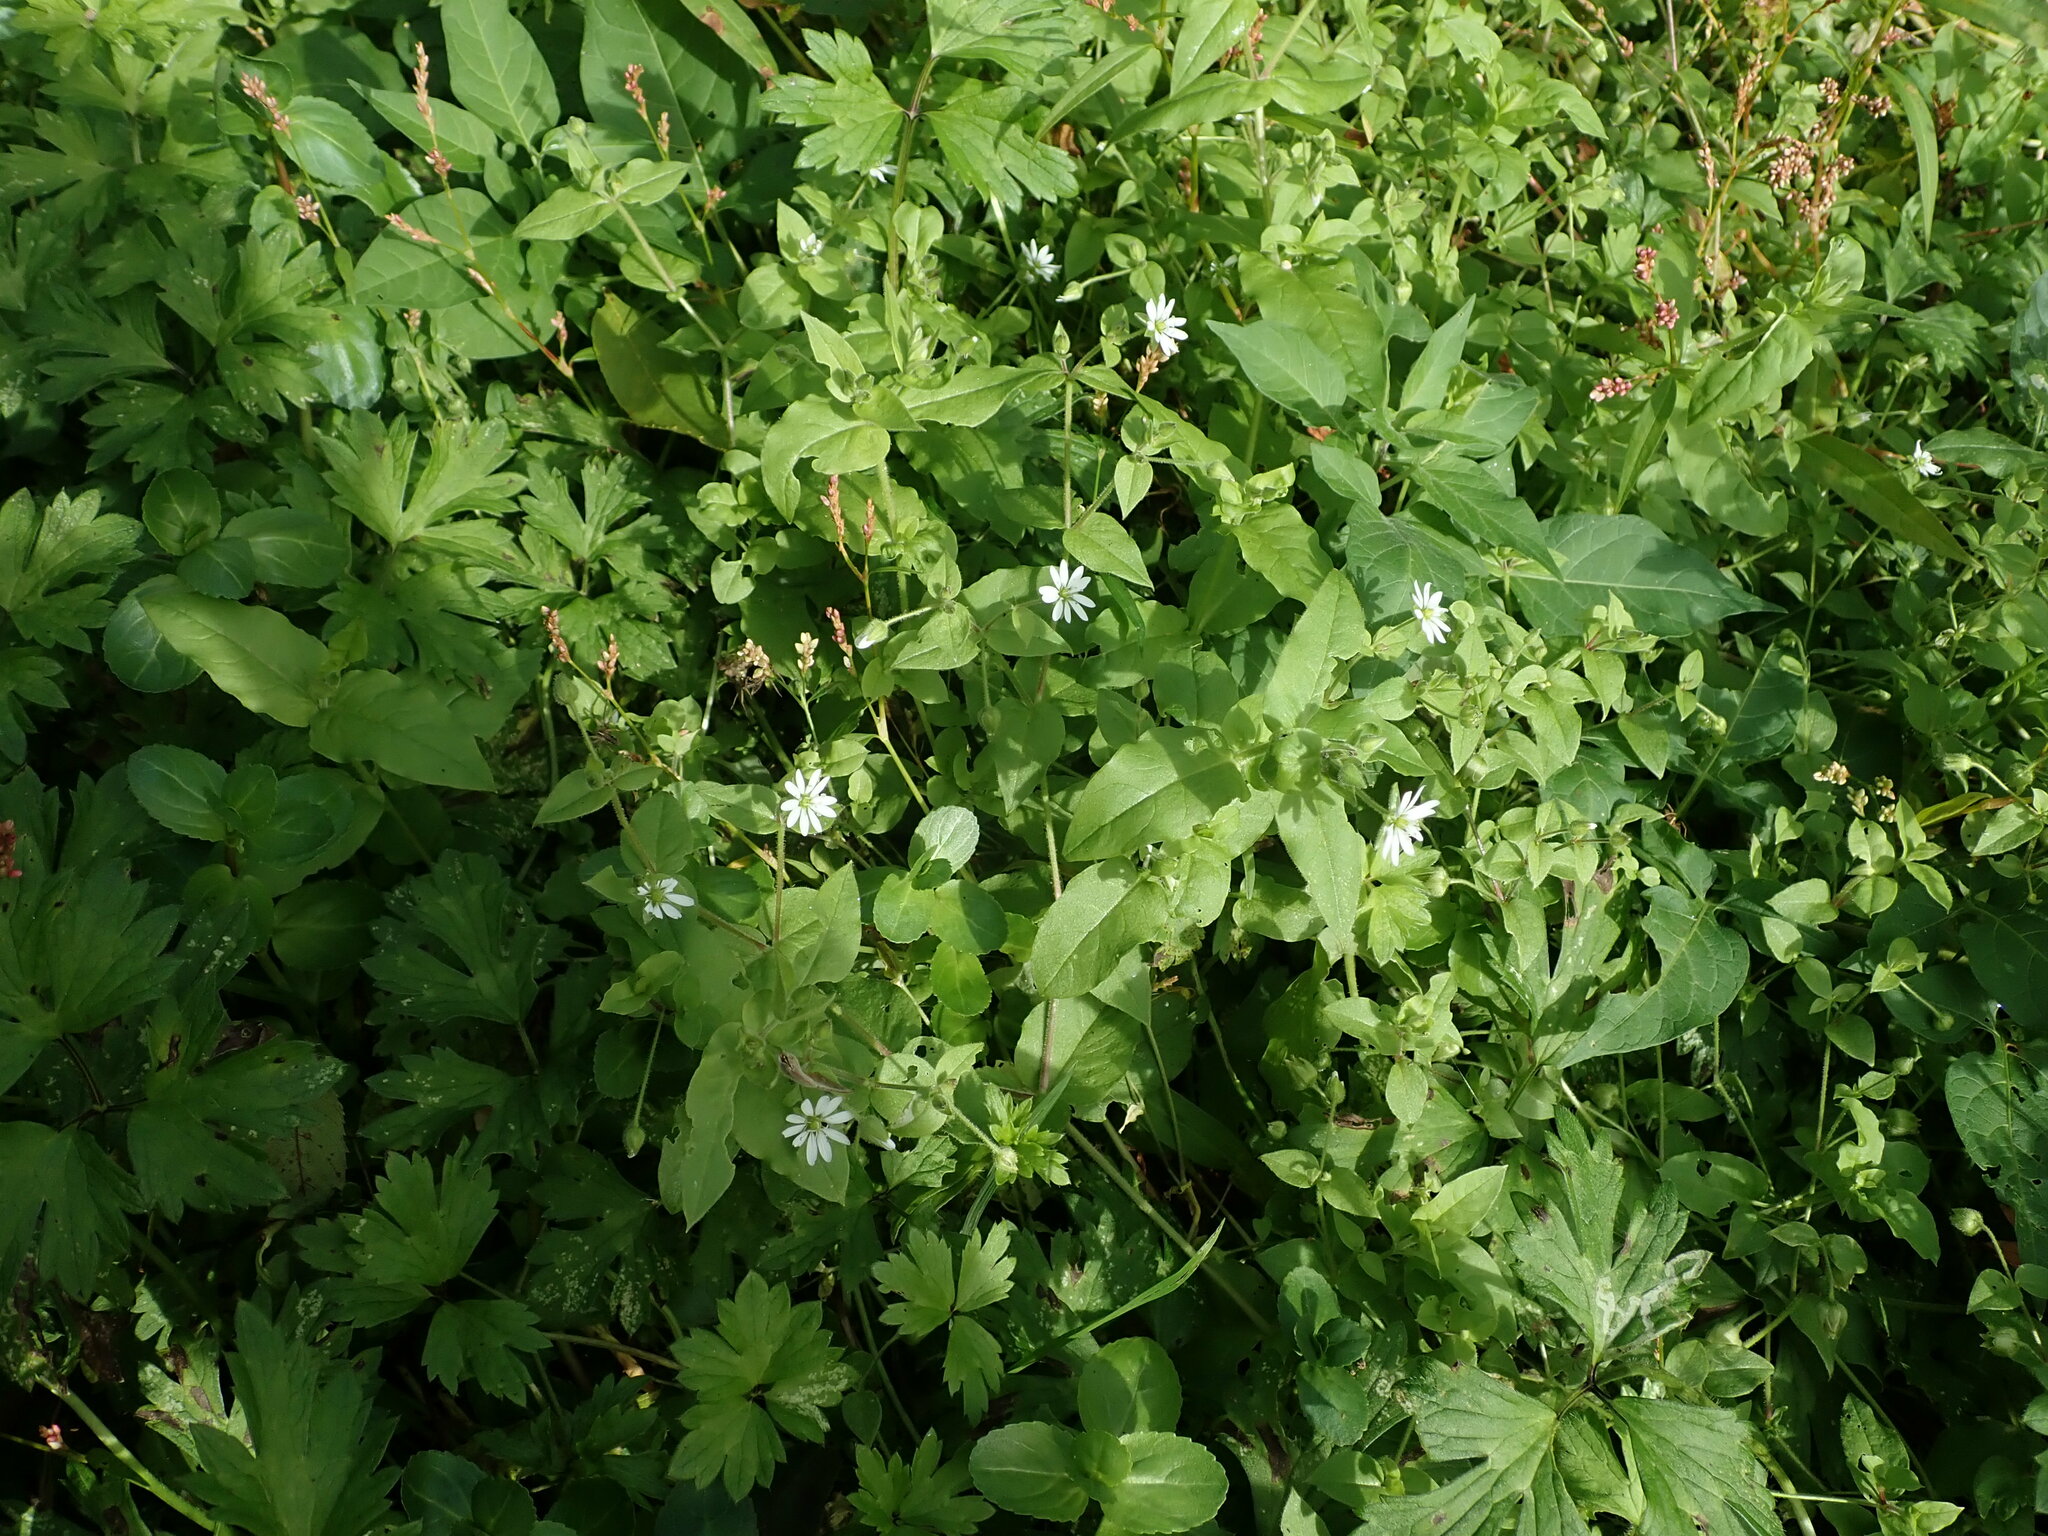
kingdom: Plantae
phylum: Tracheophyta
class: Magnoliopsida
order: Caryophyllales
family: Caryophyllaceae
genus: Stellaria
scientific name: Stellaria aquatica
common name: Water chickweed
